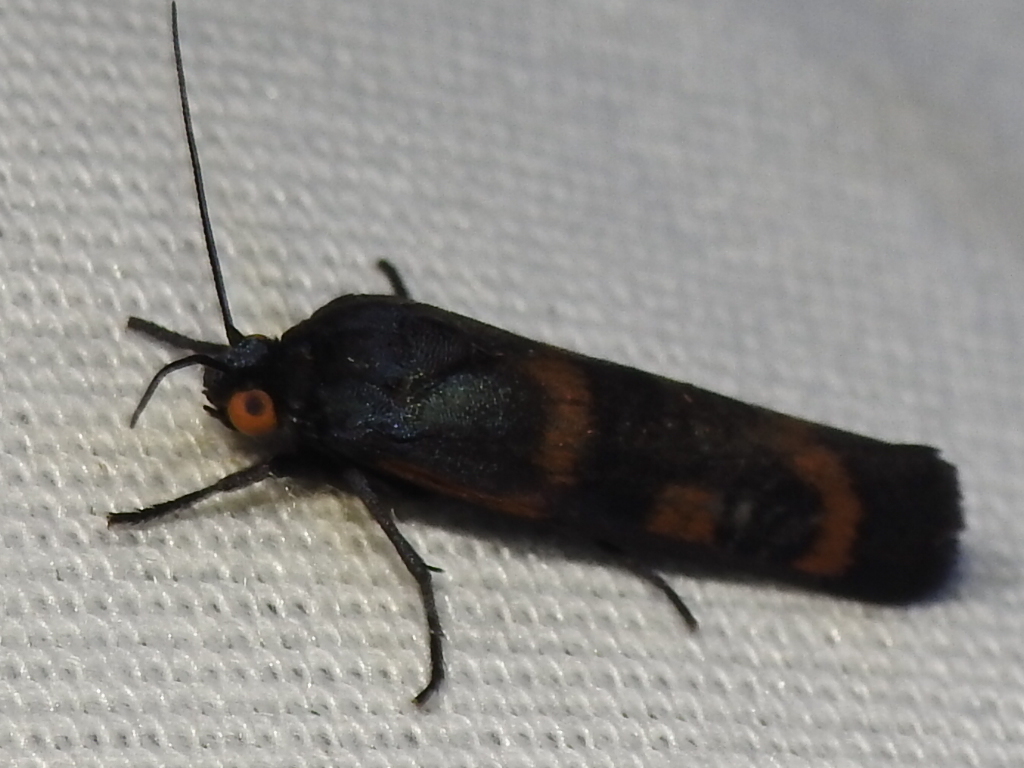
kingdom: Animalia
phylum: Arthropoda
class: Insecta
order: Lepidoptera
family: Noctuidae
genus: Cydosia
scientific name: Cydosia aurivitta
